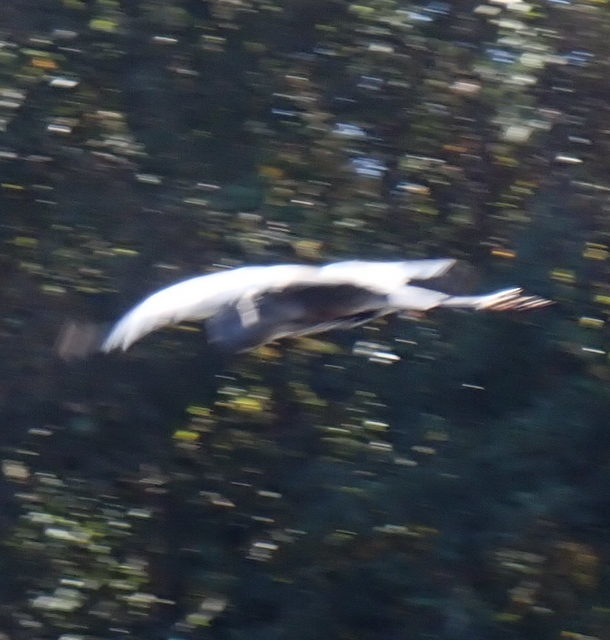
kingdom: Animalia
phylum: Chordata
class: Aves
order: Pelecaniformes
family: Ardeidae
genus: Ardea
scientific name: Ardea herodias
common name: Great blue heron
